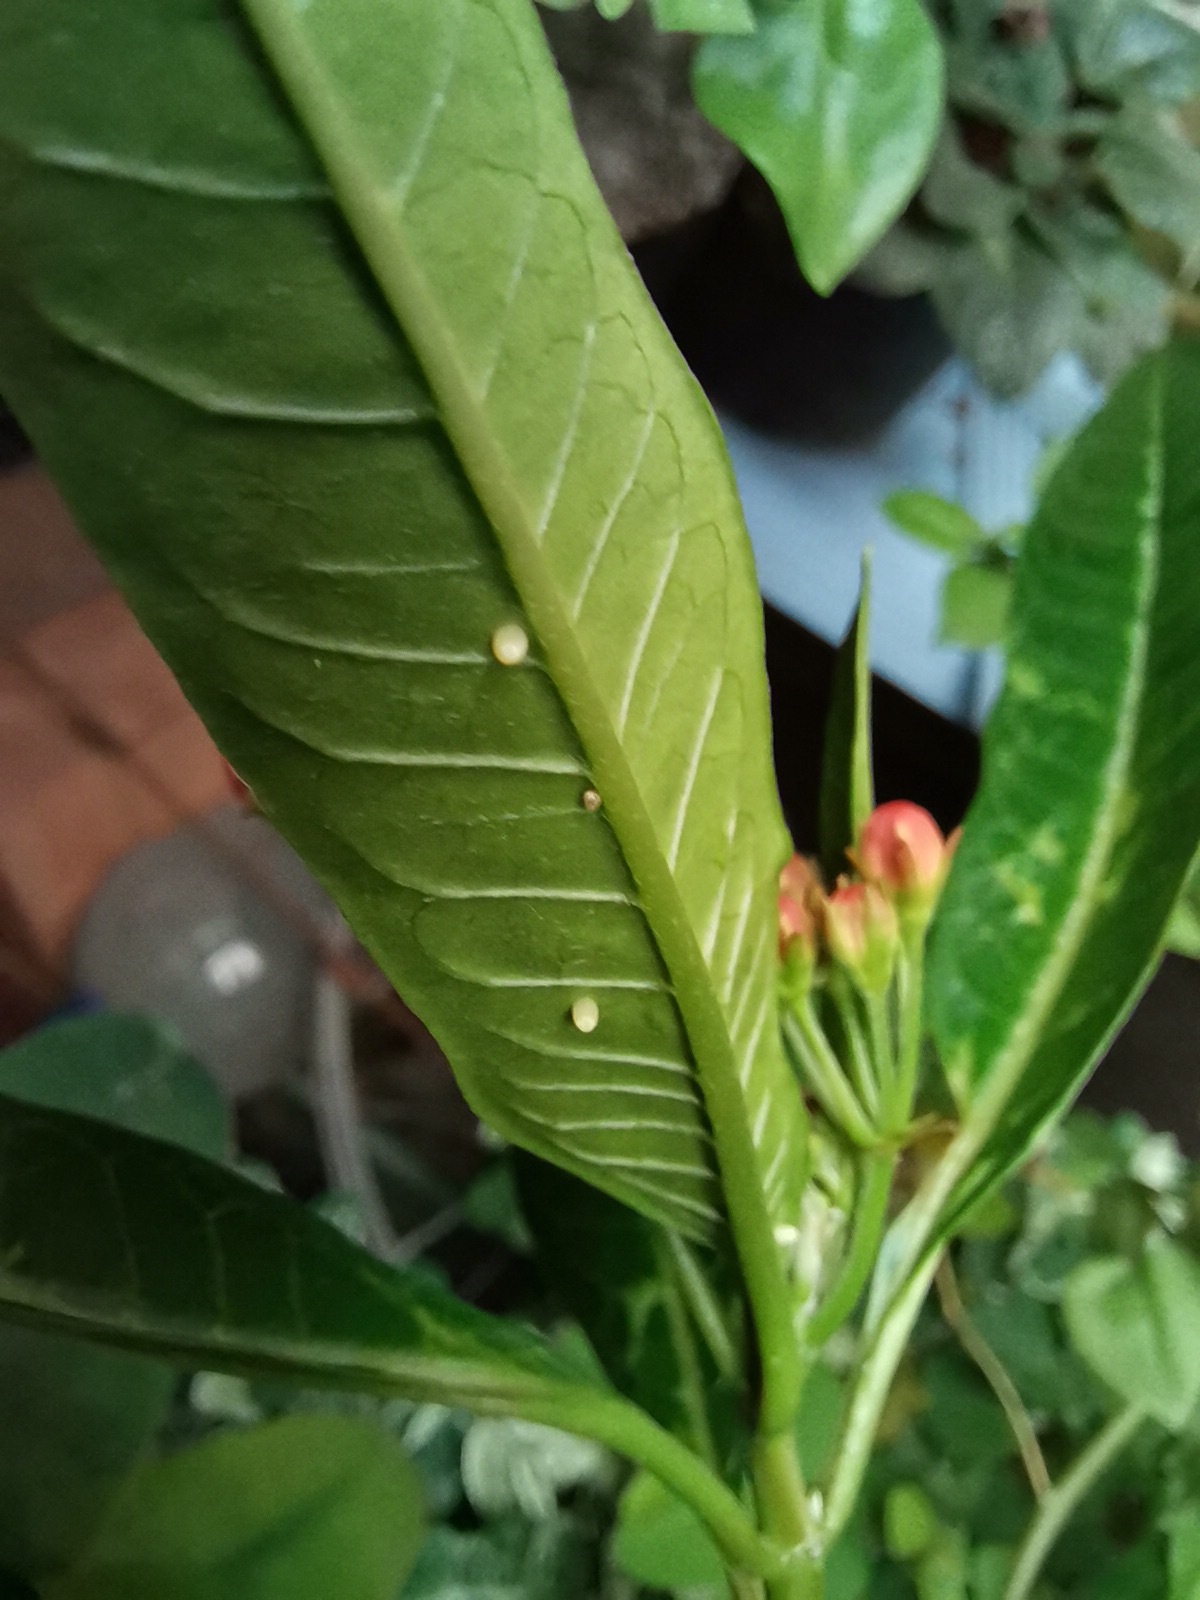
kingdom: Animalia
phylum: Arthropoda
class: Insecta
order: Lepidoptera
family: Nymphalidae
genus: Danaus
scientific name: Danaus plexippus
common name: Monarch
